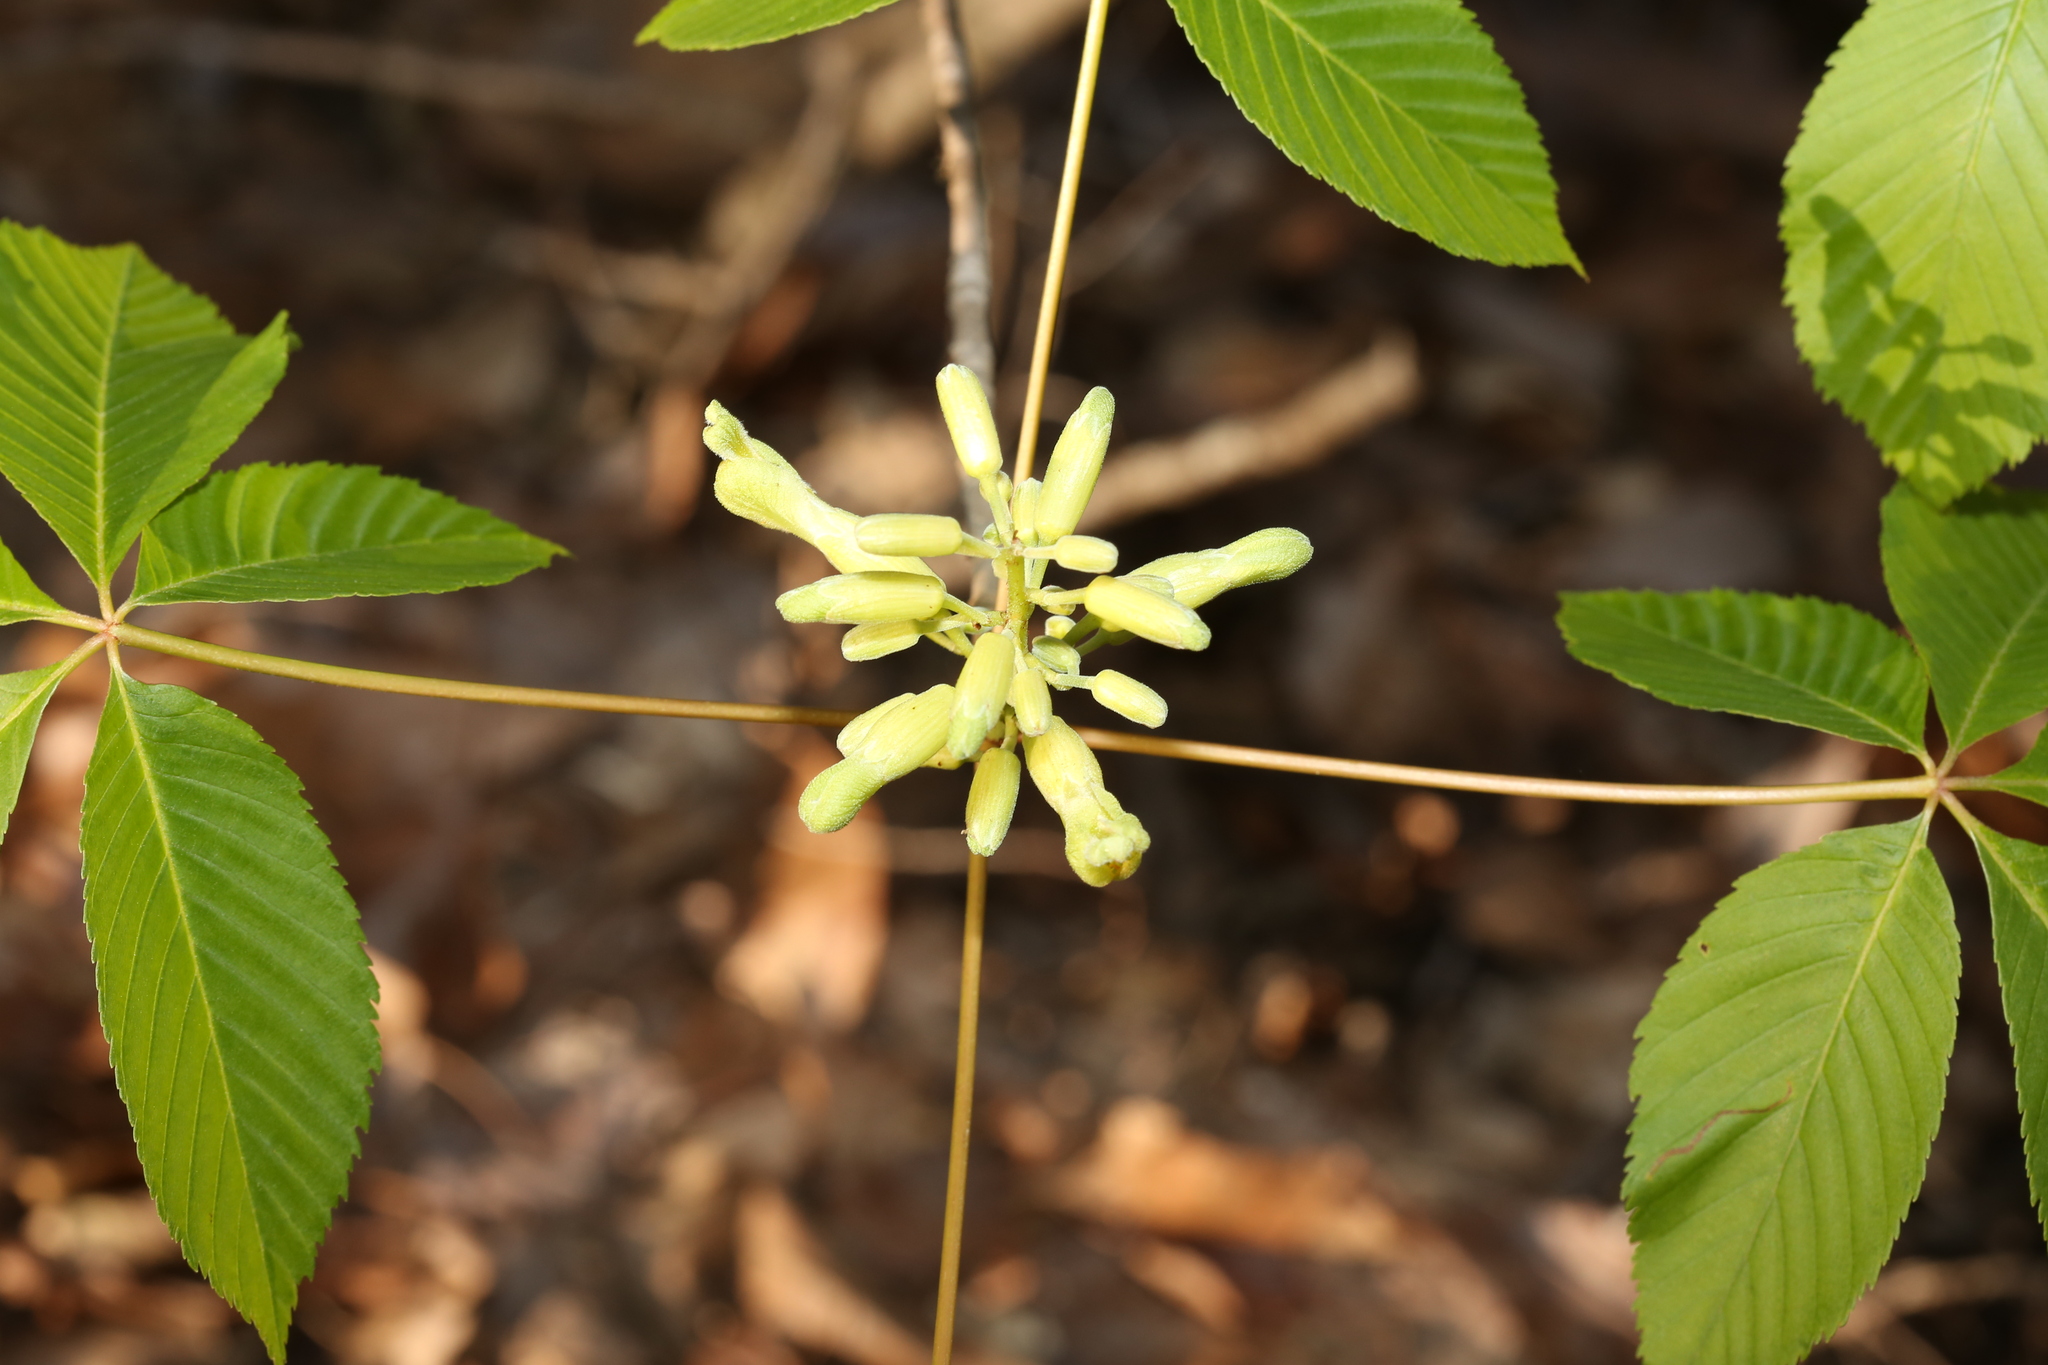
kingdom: Plantae
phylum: Tracheophyta
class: Magnoliopsida
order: Sapindales
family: Sapindaceae
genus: Aesculus
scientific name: Aesculus sylvatica
